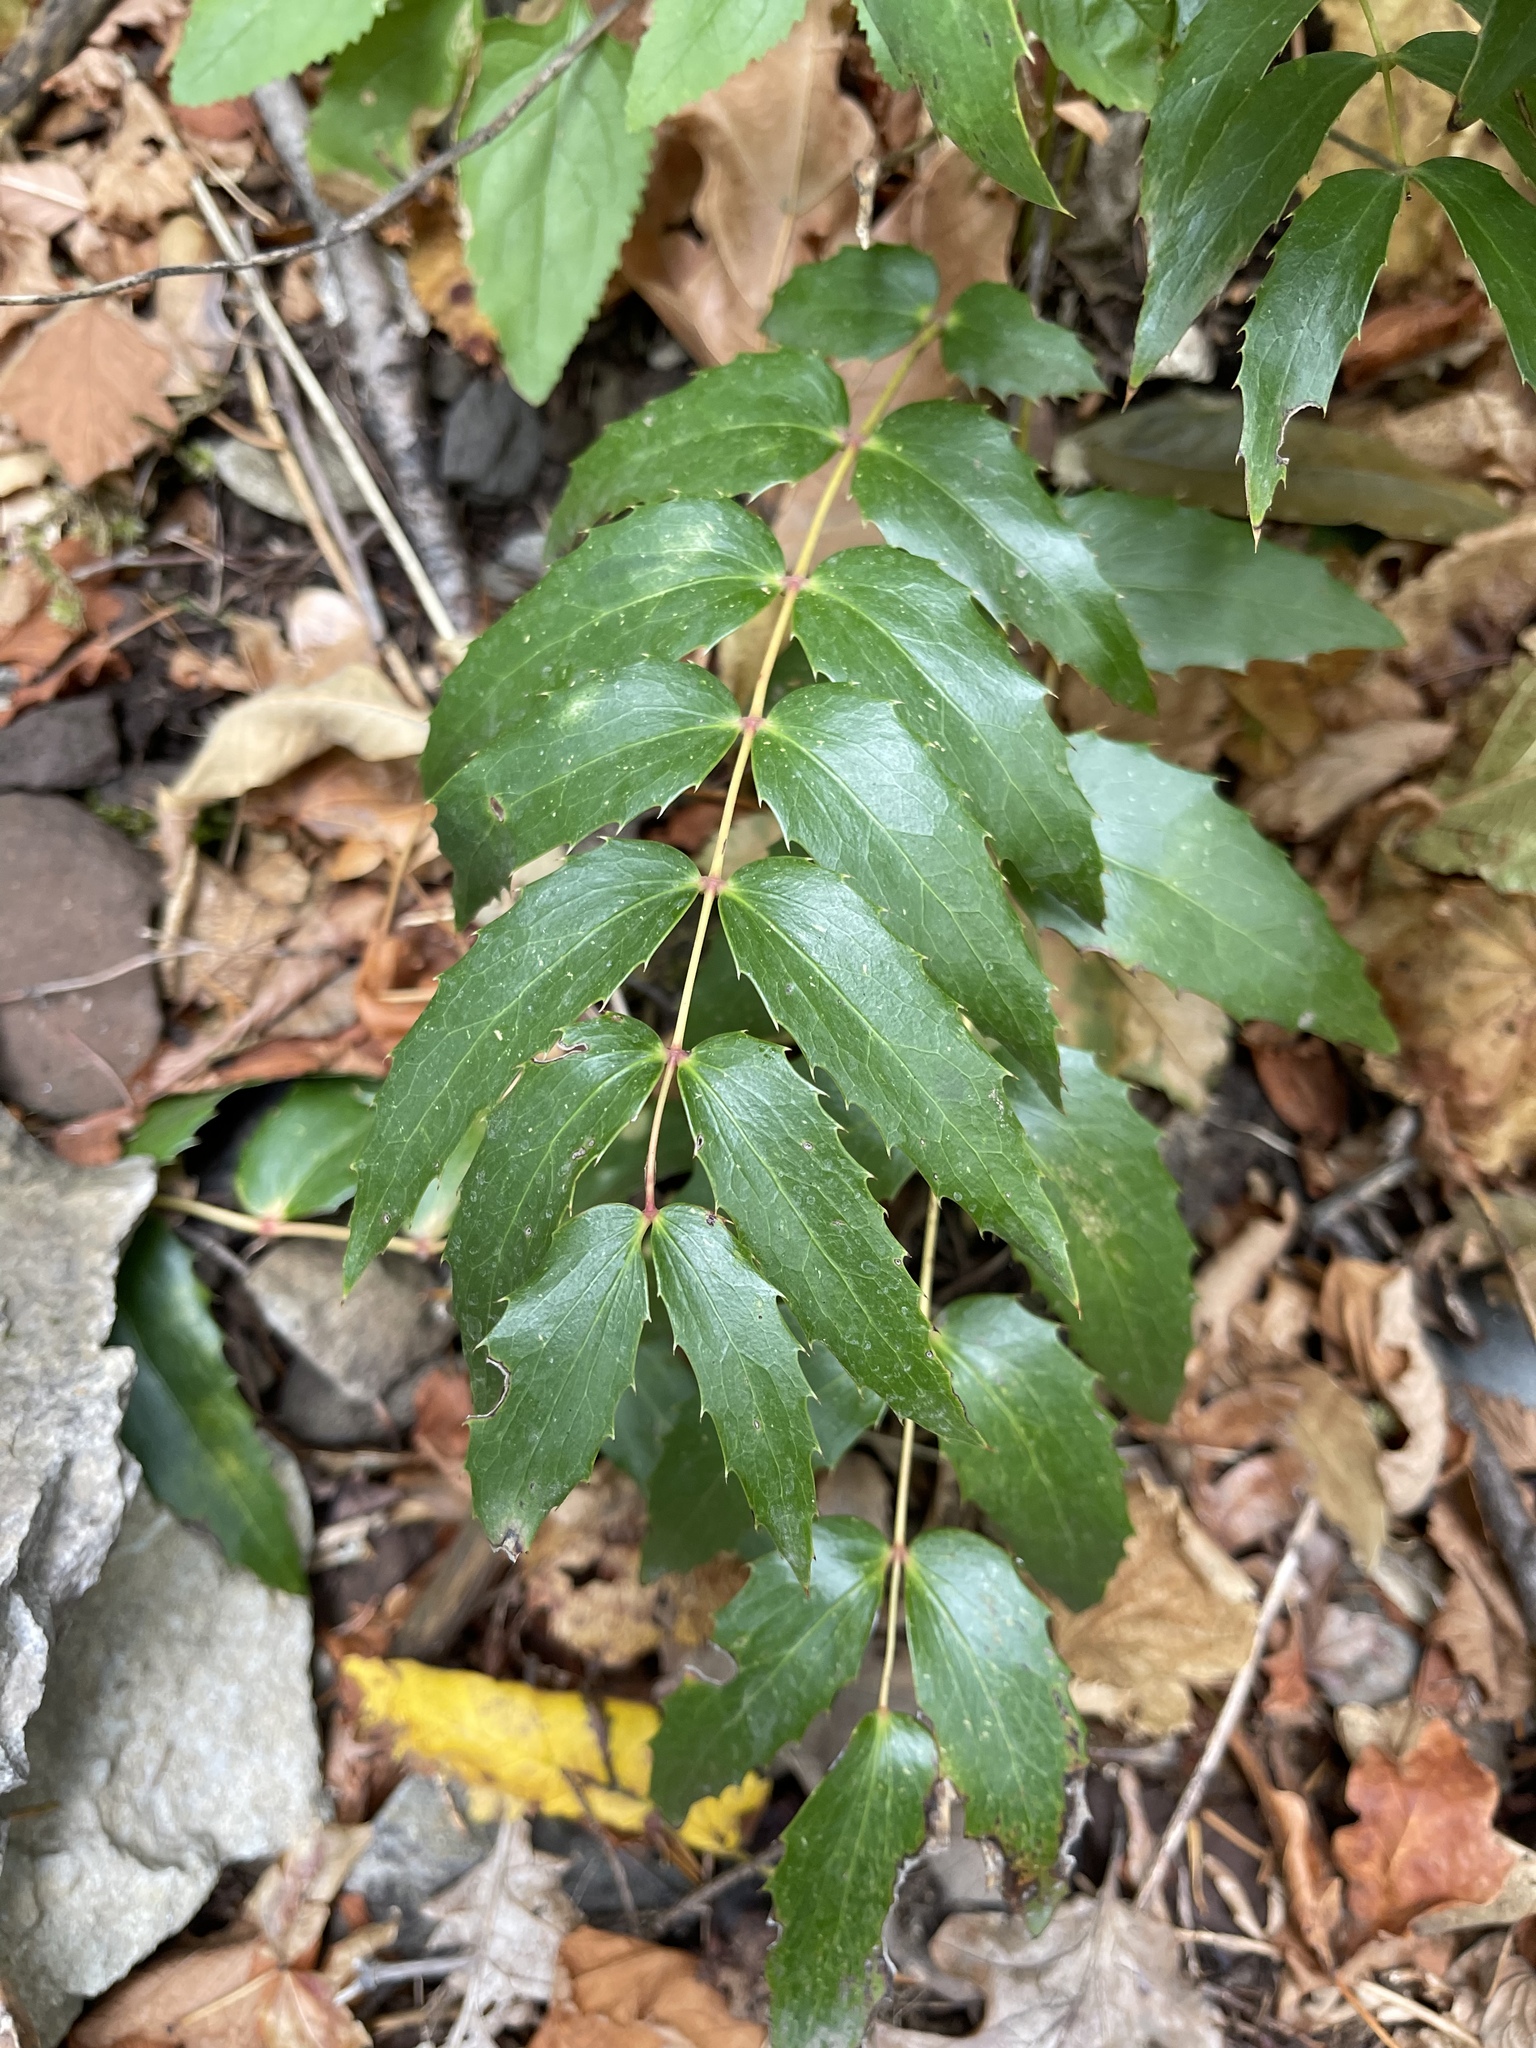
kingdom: Plantae
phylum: Tracheophyta
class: Magnoliopsida
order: Ranunculales
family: Berberidaceae
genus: Mahonia
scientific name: Mahonia nervosa
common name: Cascade oregon-grape
